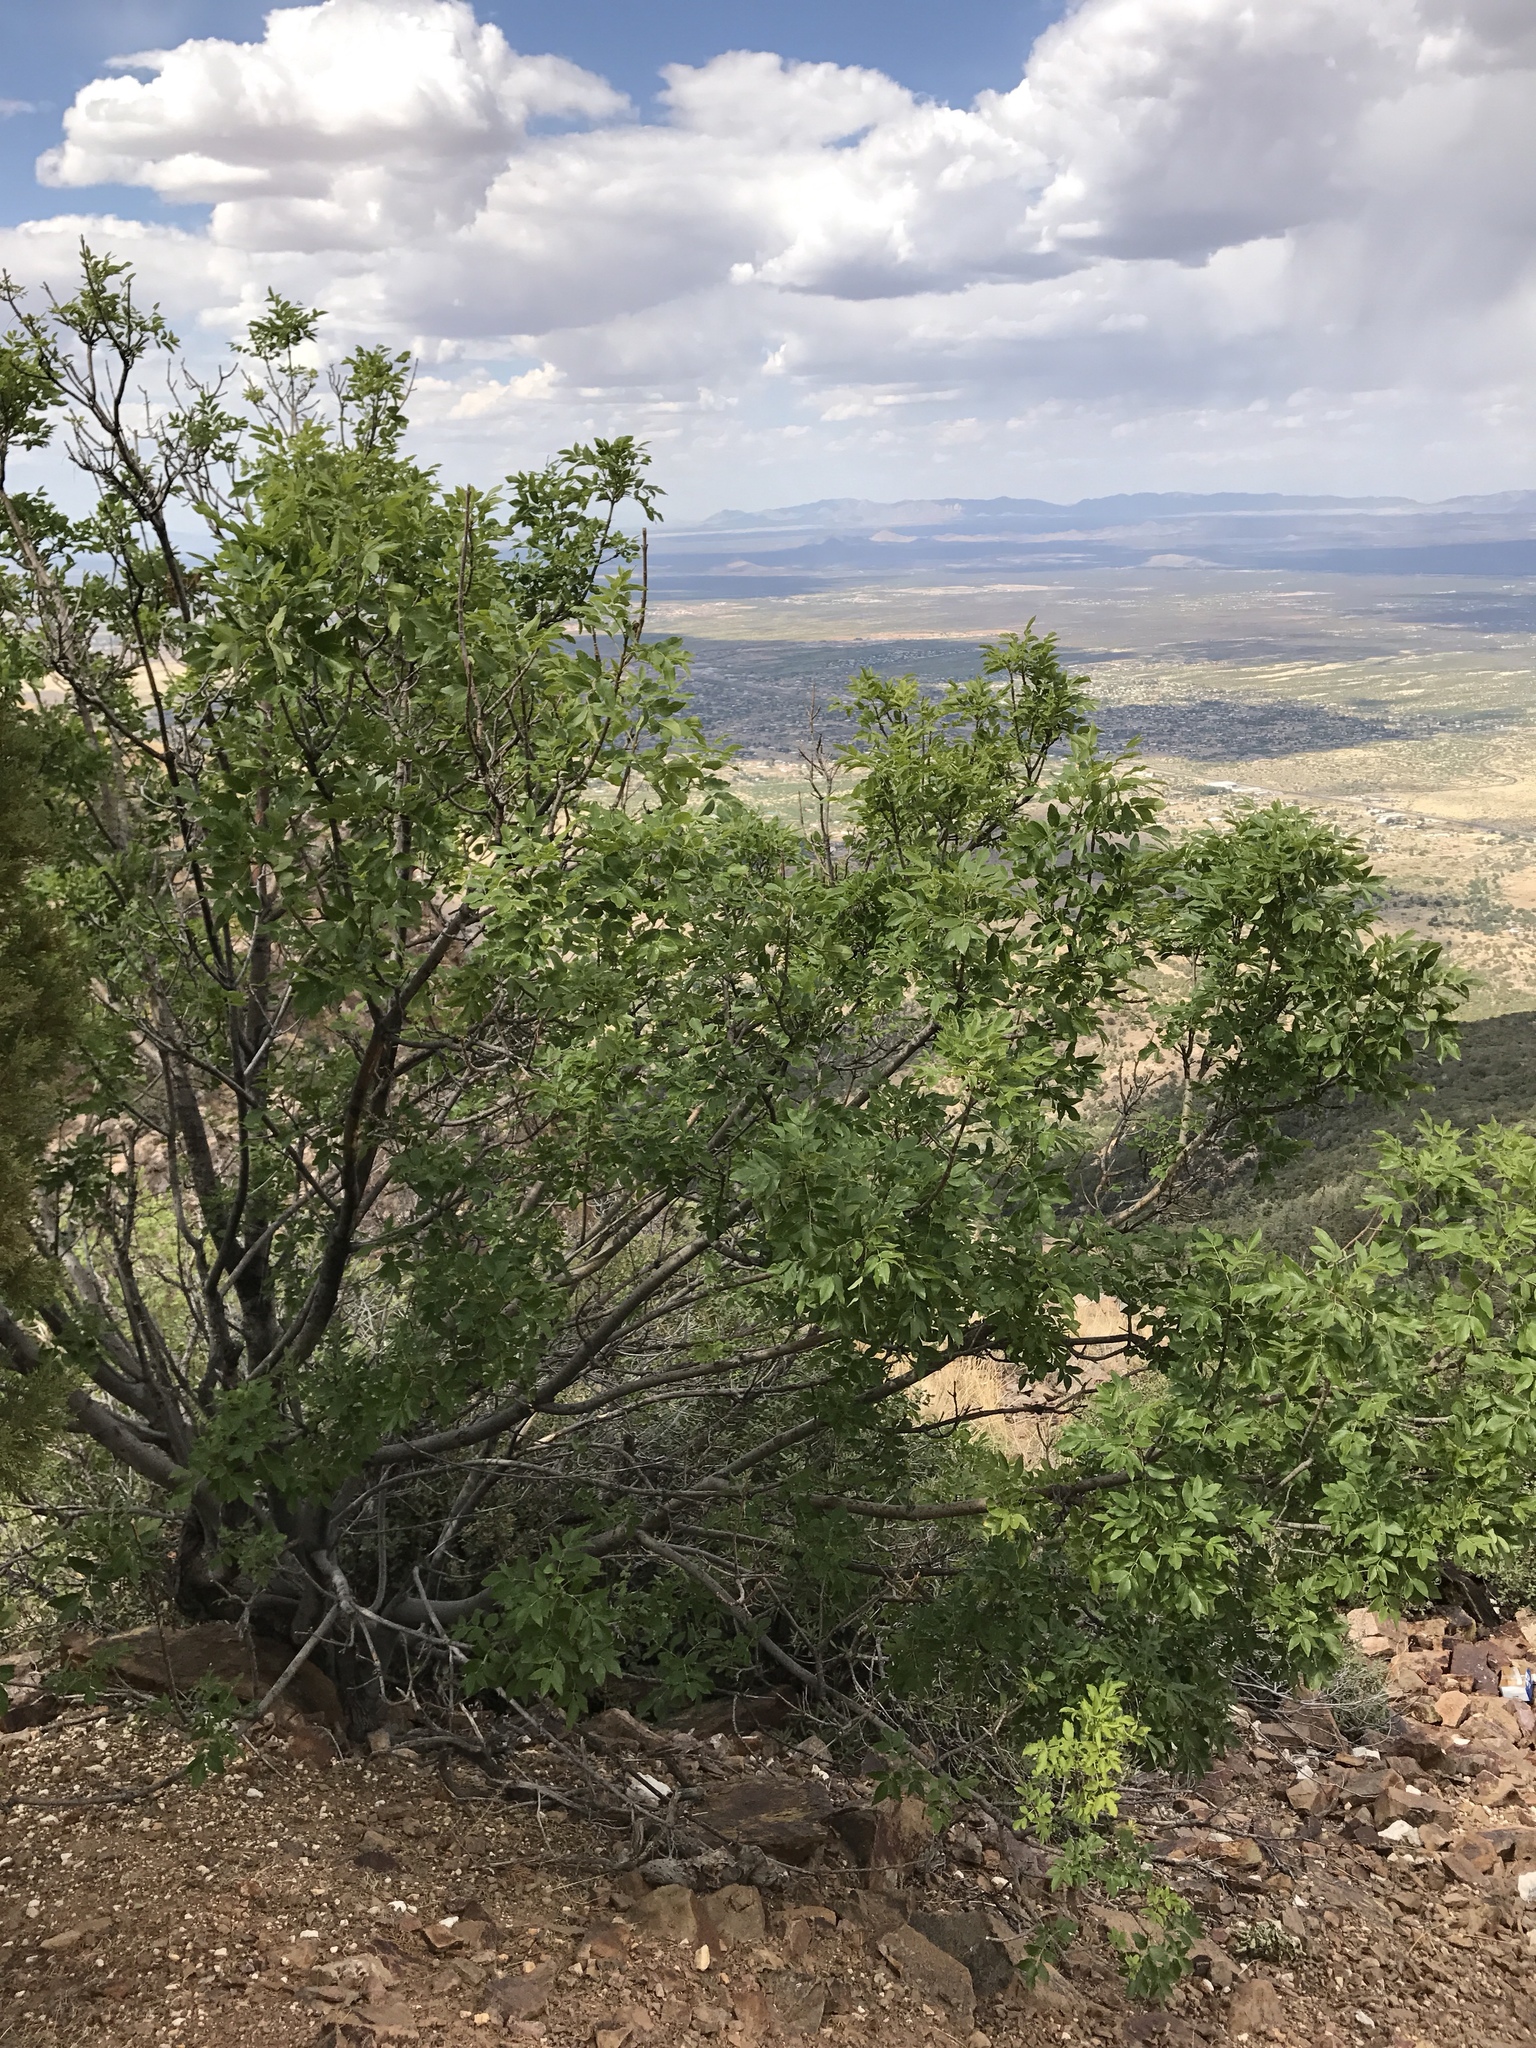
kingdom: Plantae
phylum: Tracheophyta
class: Magnoliopsida
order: Lamiales
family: Oleaceae
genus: Fraxinus
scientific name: Fraxinus papillosa
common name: Chihuahua ash
